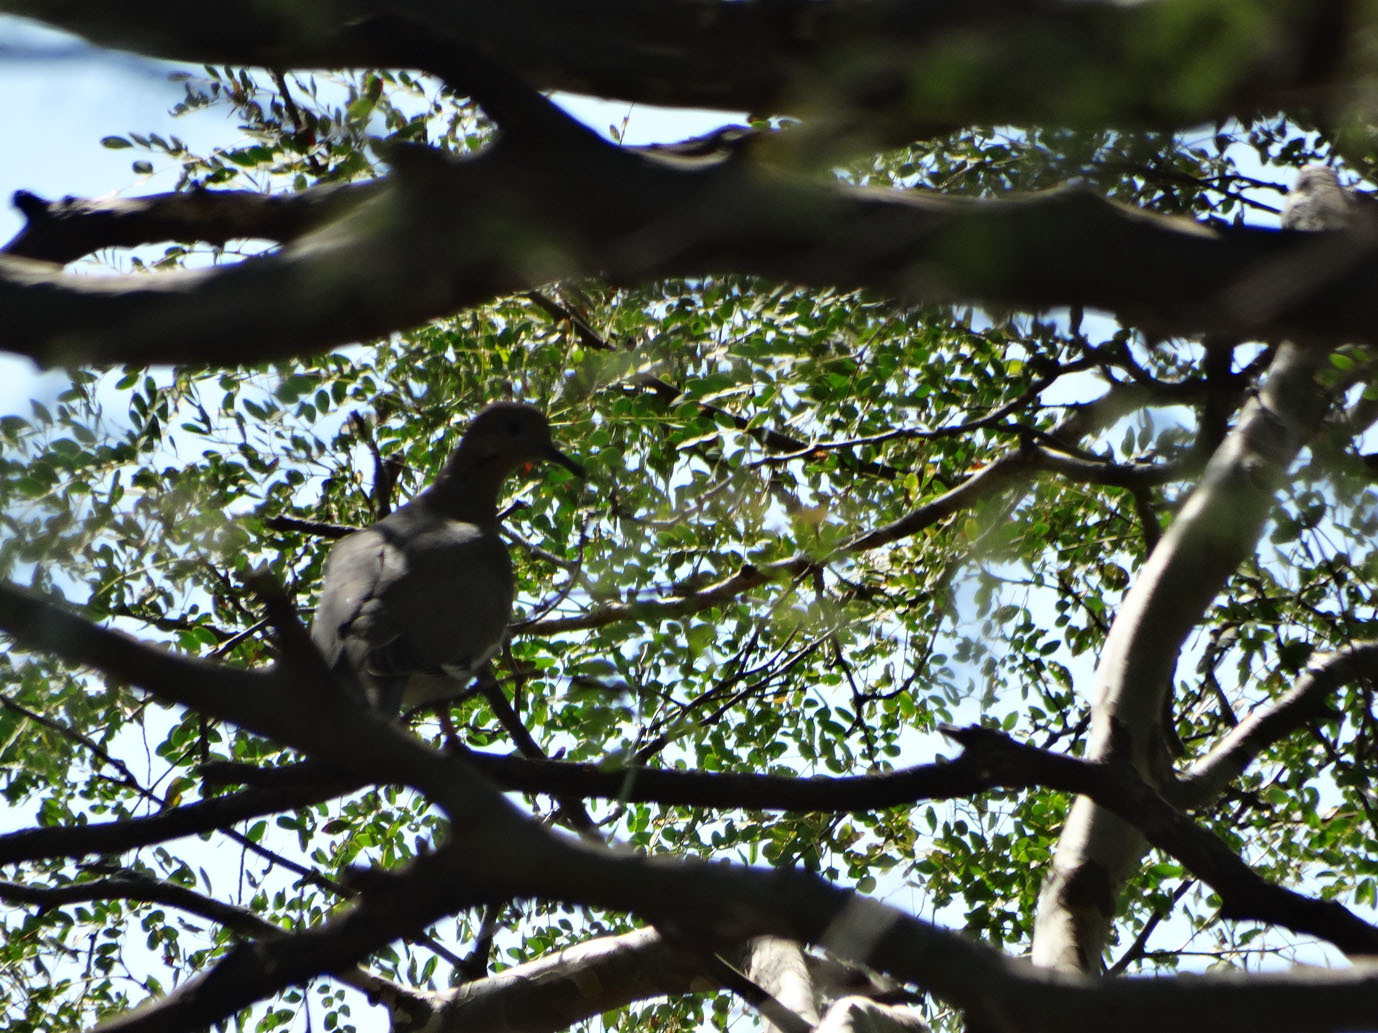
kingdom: Animalia
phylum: Chordata
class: Aves
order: Columbiformes
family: Columbidae
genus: Zenaida
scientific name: Zenaida asiatica
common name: White-winged dove
